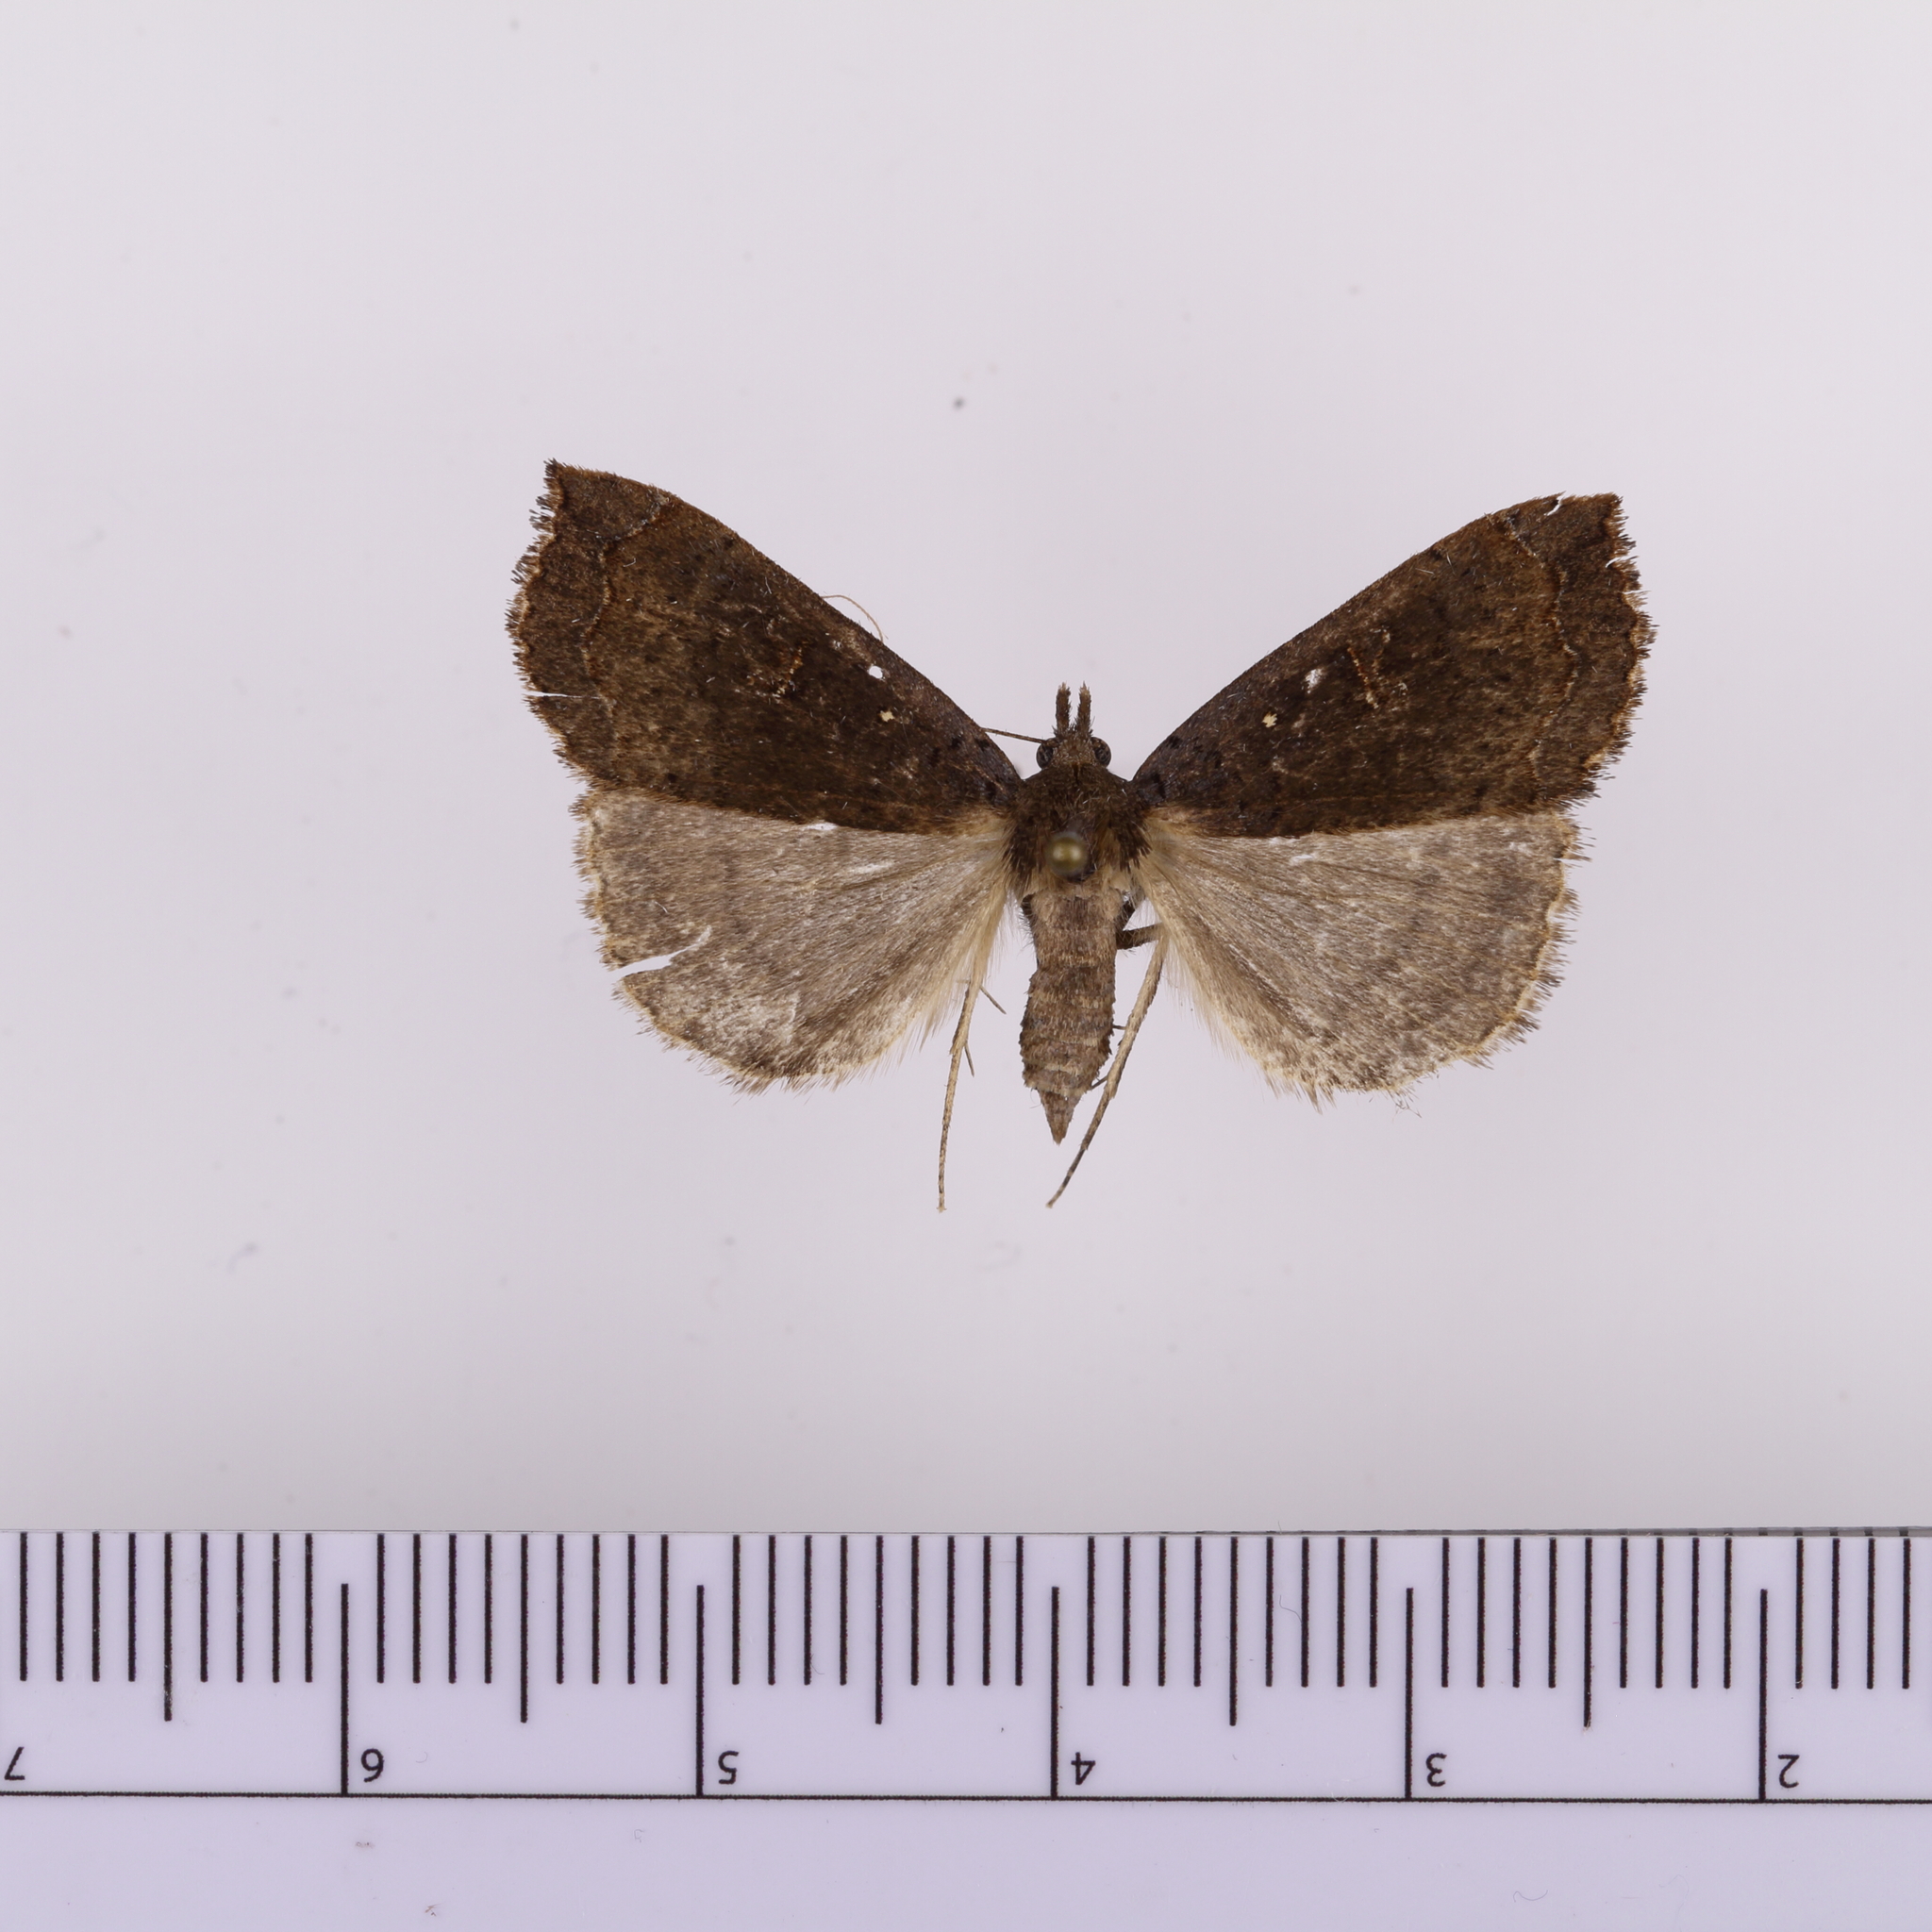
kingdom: Animalia
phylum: Arthropoda
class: Insecta
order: Lepidoptera
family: Erebidae
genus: Rhapsa
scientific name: Rhapsa scotosialis
